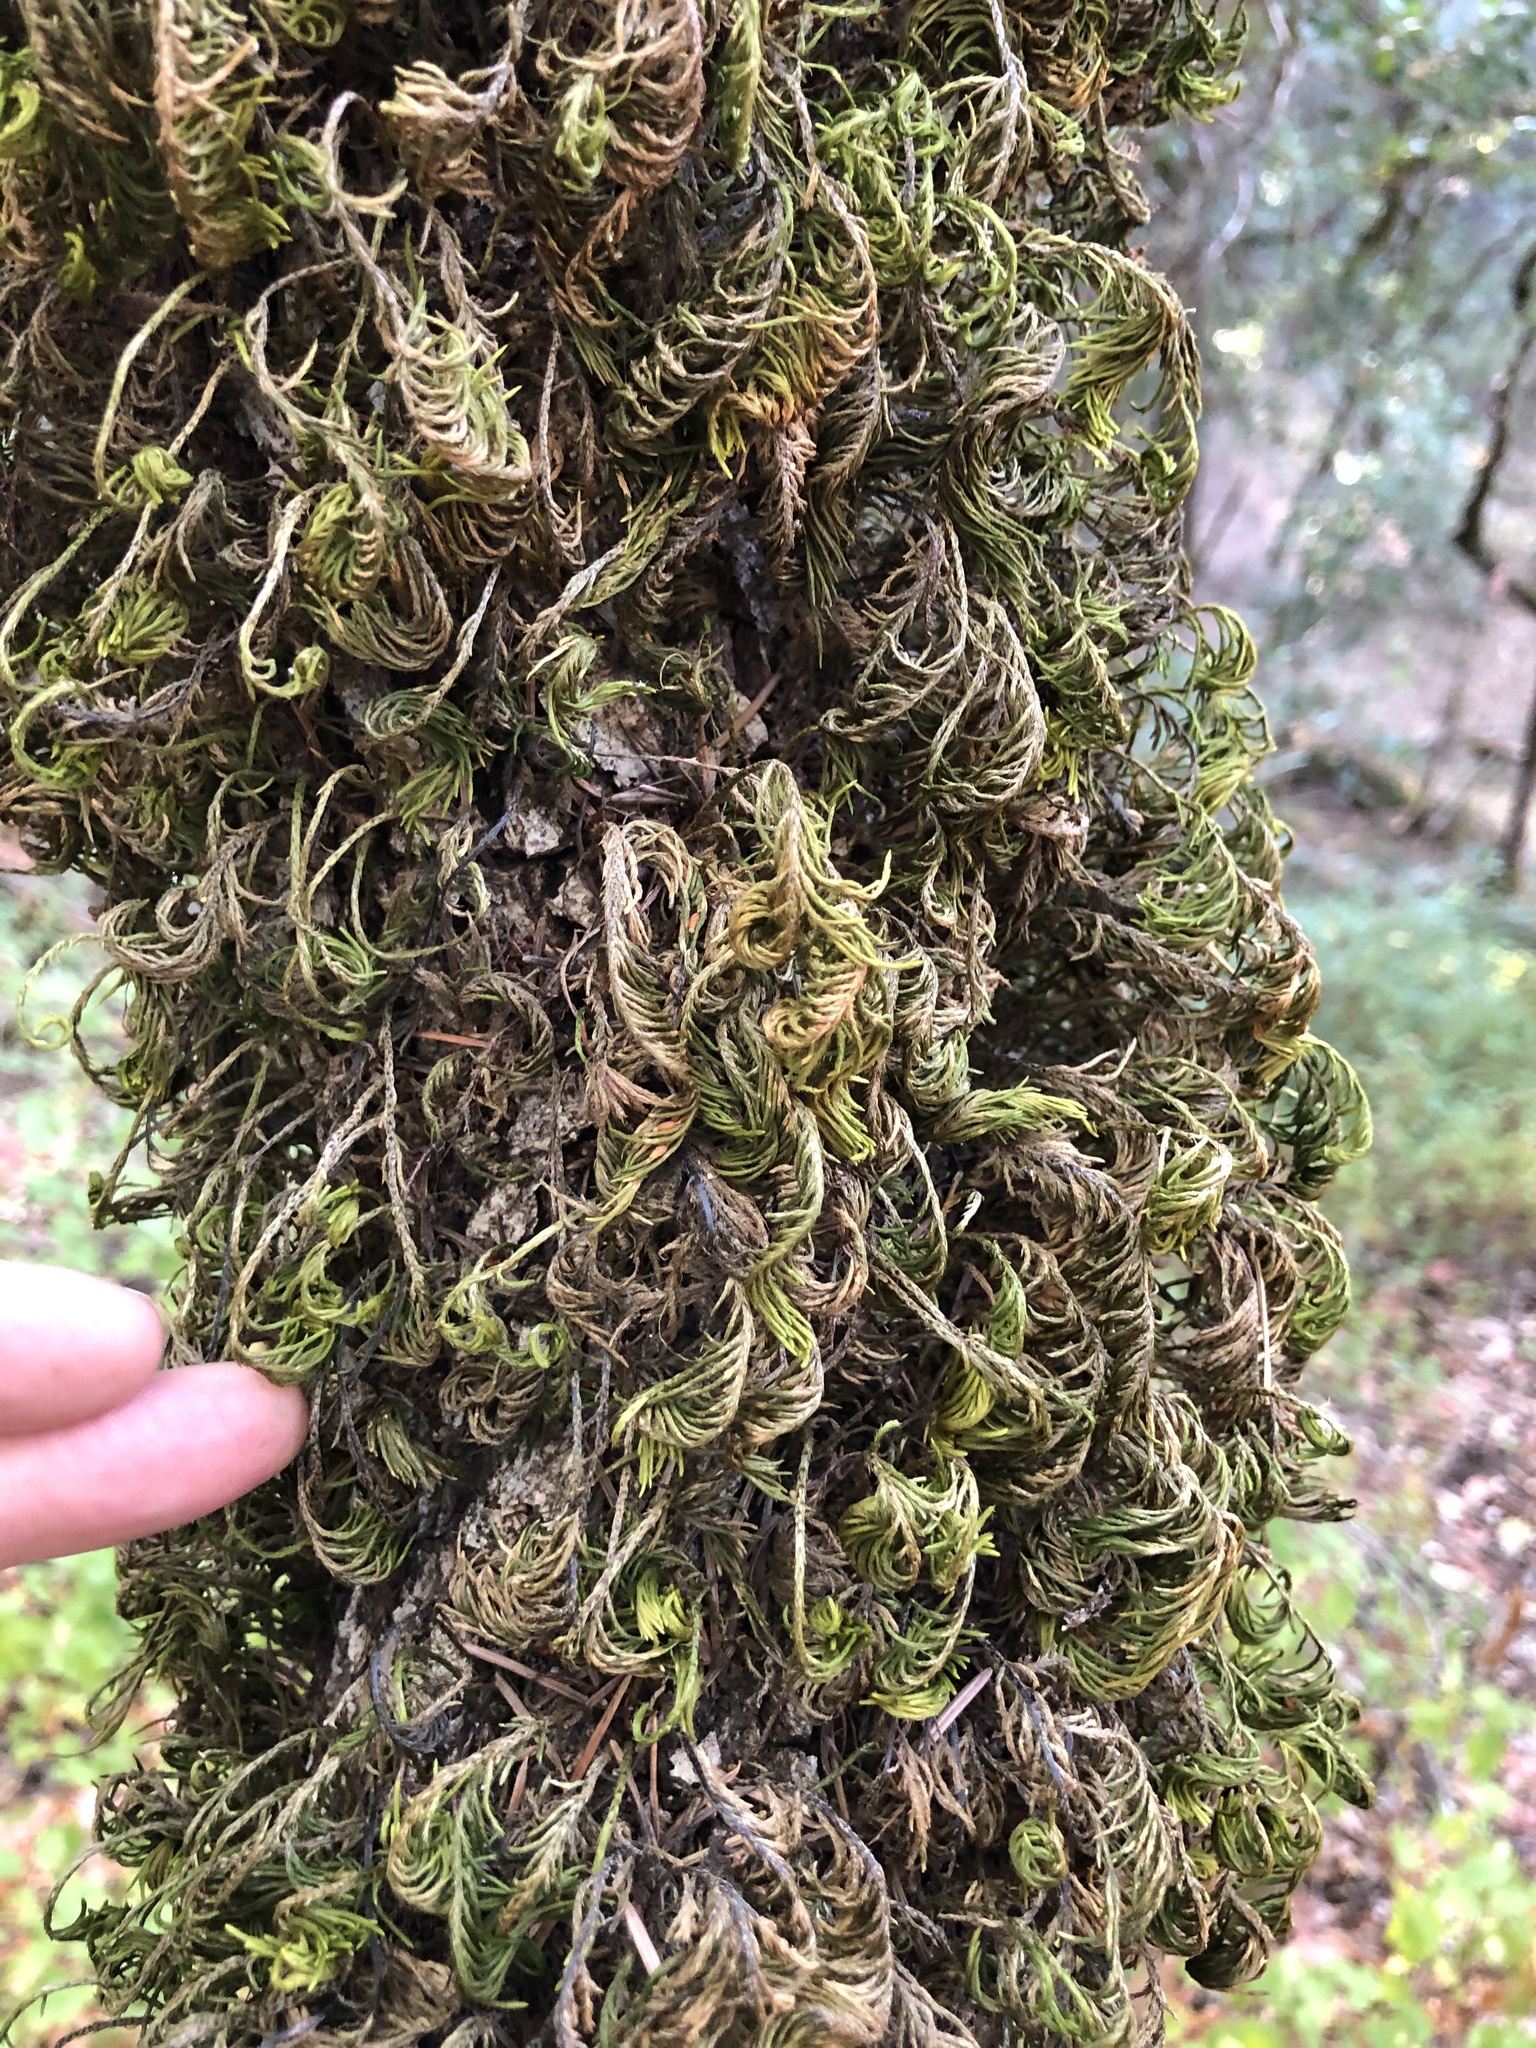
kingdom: Plantae
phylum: Bryophyta
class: Bryopsida
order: Hypnales
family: Cryphaeaceae
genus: Dendroalsia
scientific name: Dendroalsia abietina
